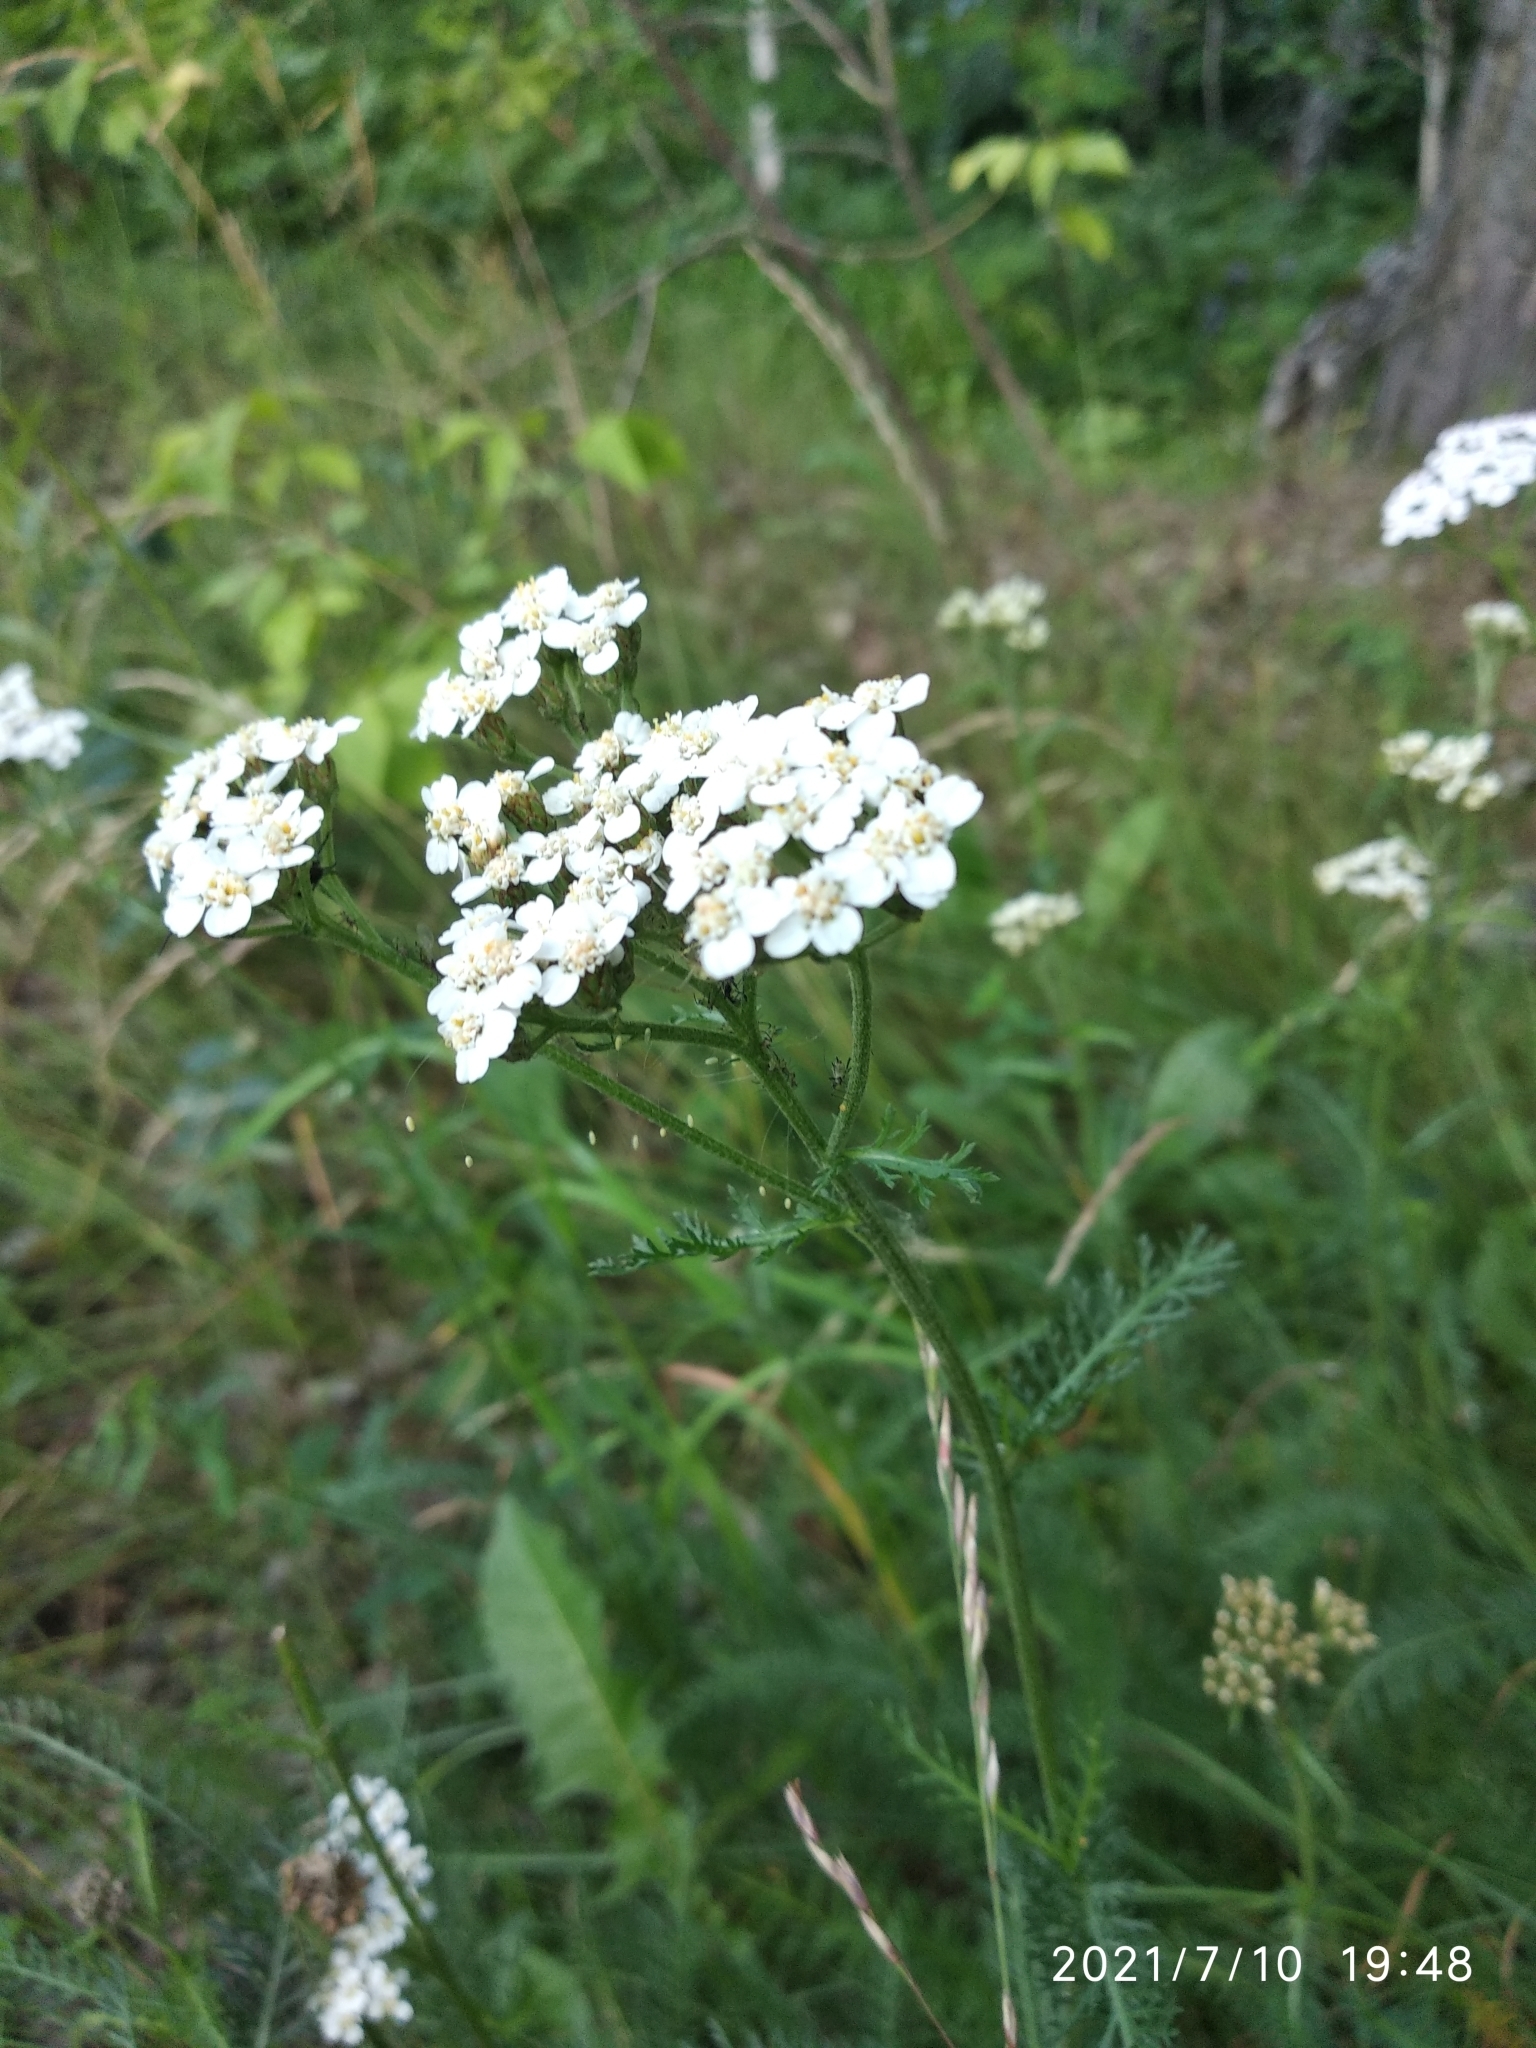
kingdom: Plantae
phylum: Tracheophyta
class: Magnoliopsida
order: Asterales
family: Asteraceae
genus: Achillea
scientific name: Achillea millefolium
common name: Yarrow
